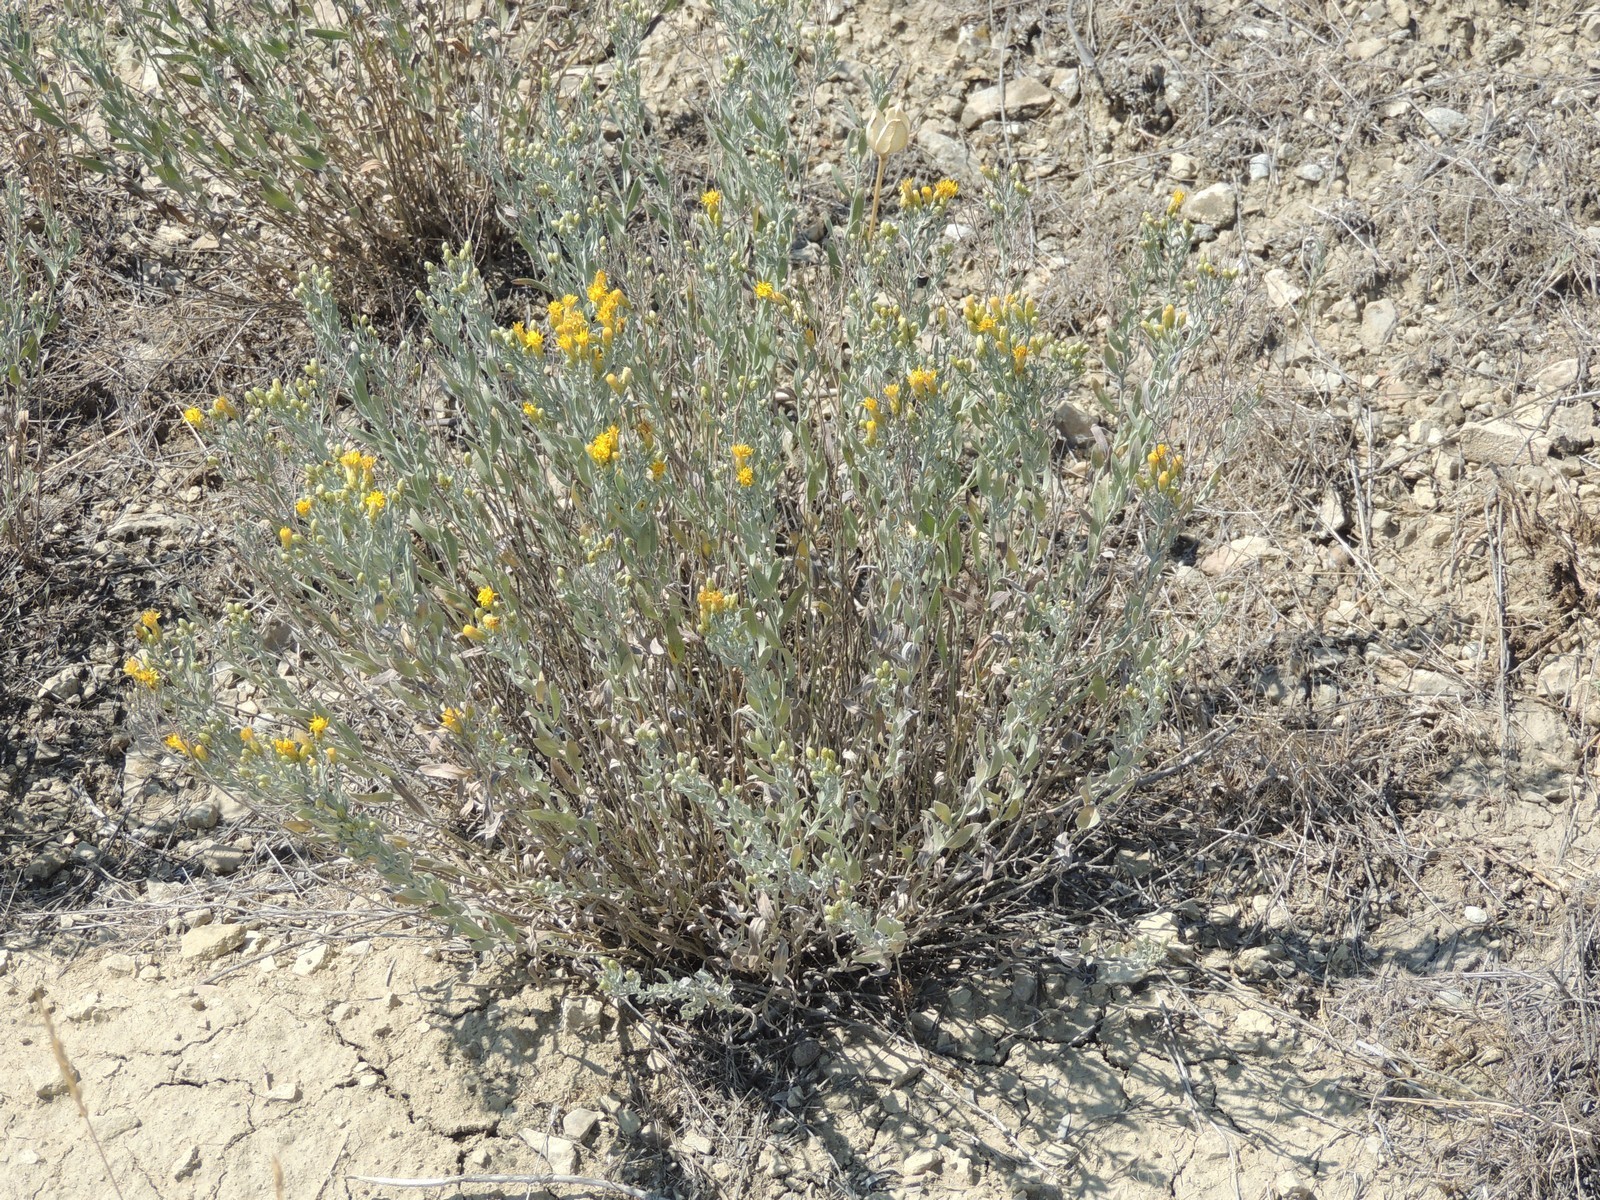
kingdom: Plantae
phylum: Tracheophyta
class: Magnoliopsida
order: Asterales
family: Asteraceae
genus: Galatella
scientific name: Galatella villosa
